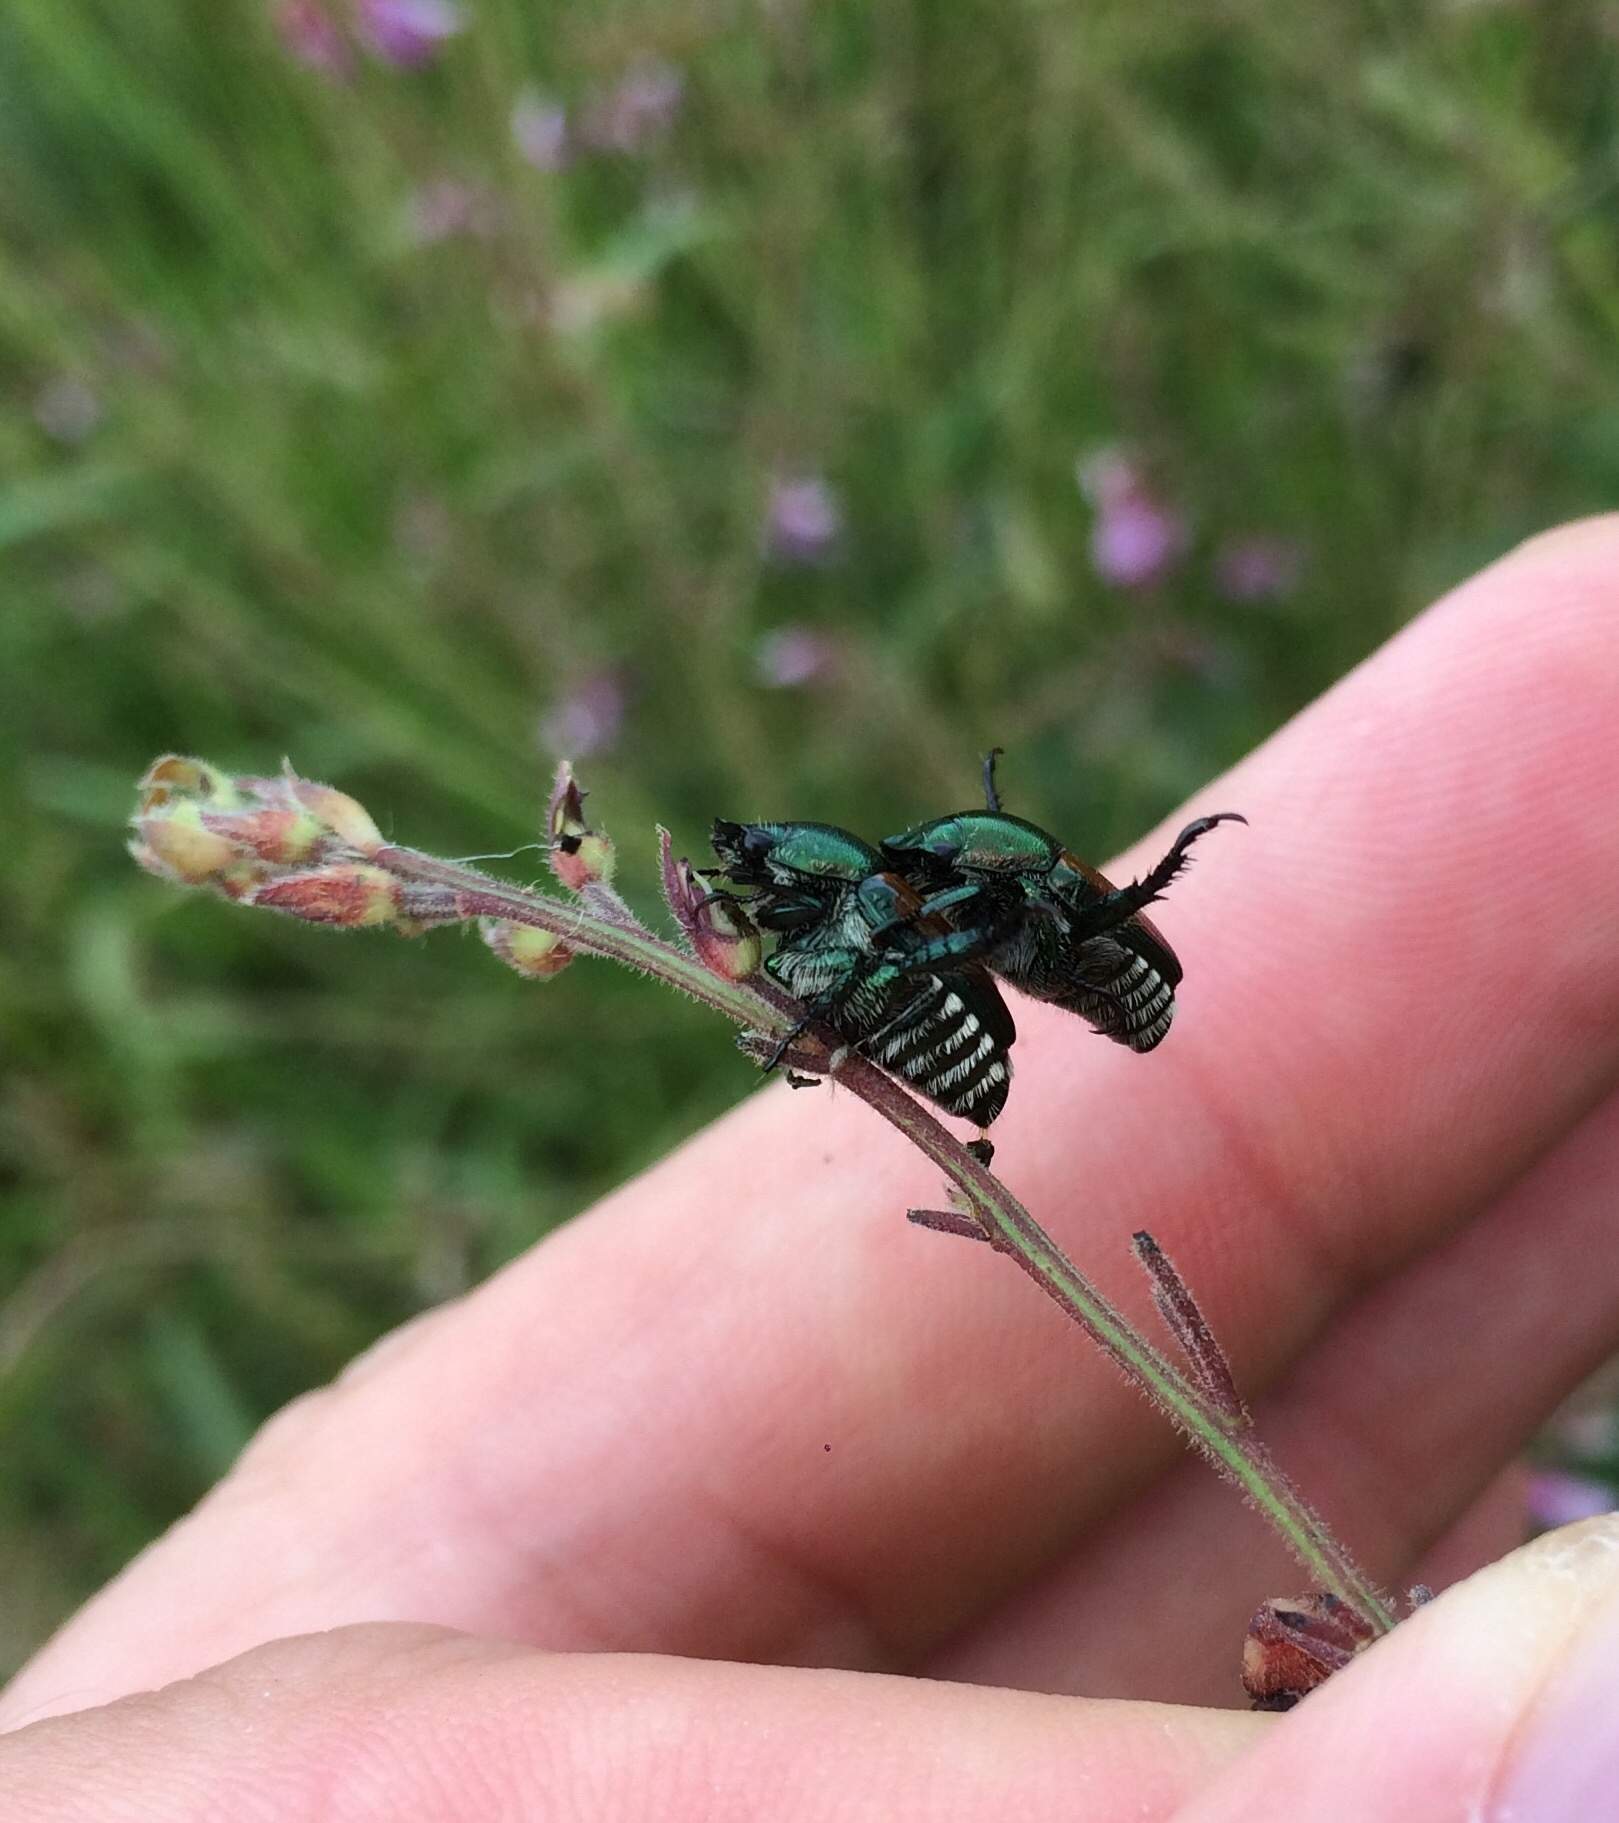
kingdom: Animalia
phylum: Arthropoda
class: Insecta
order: Coleoptera
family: Scarabaeidae
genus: Popillia
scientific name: Popillia japonica
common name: Japanese beetle
